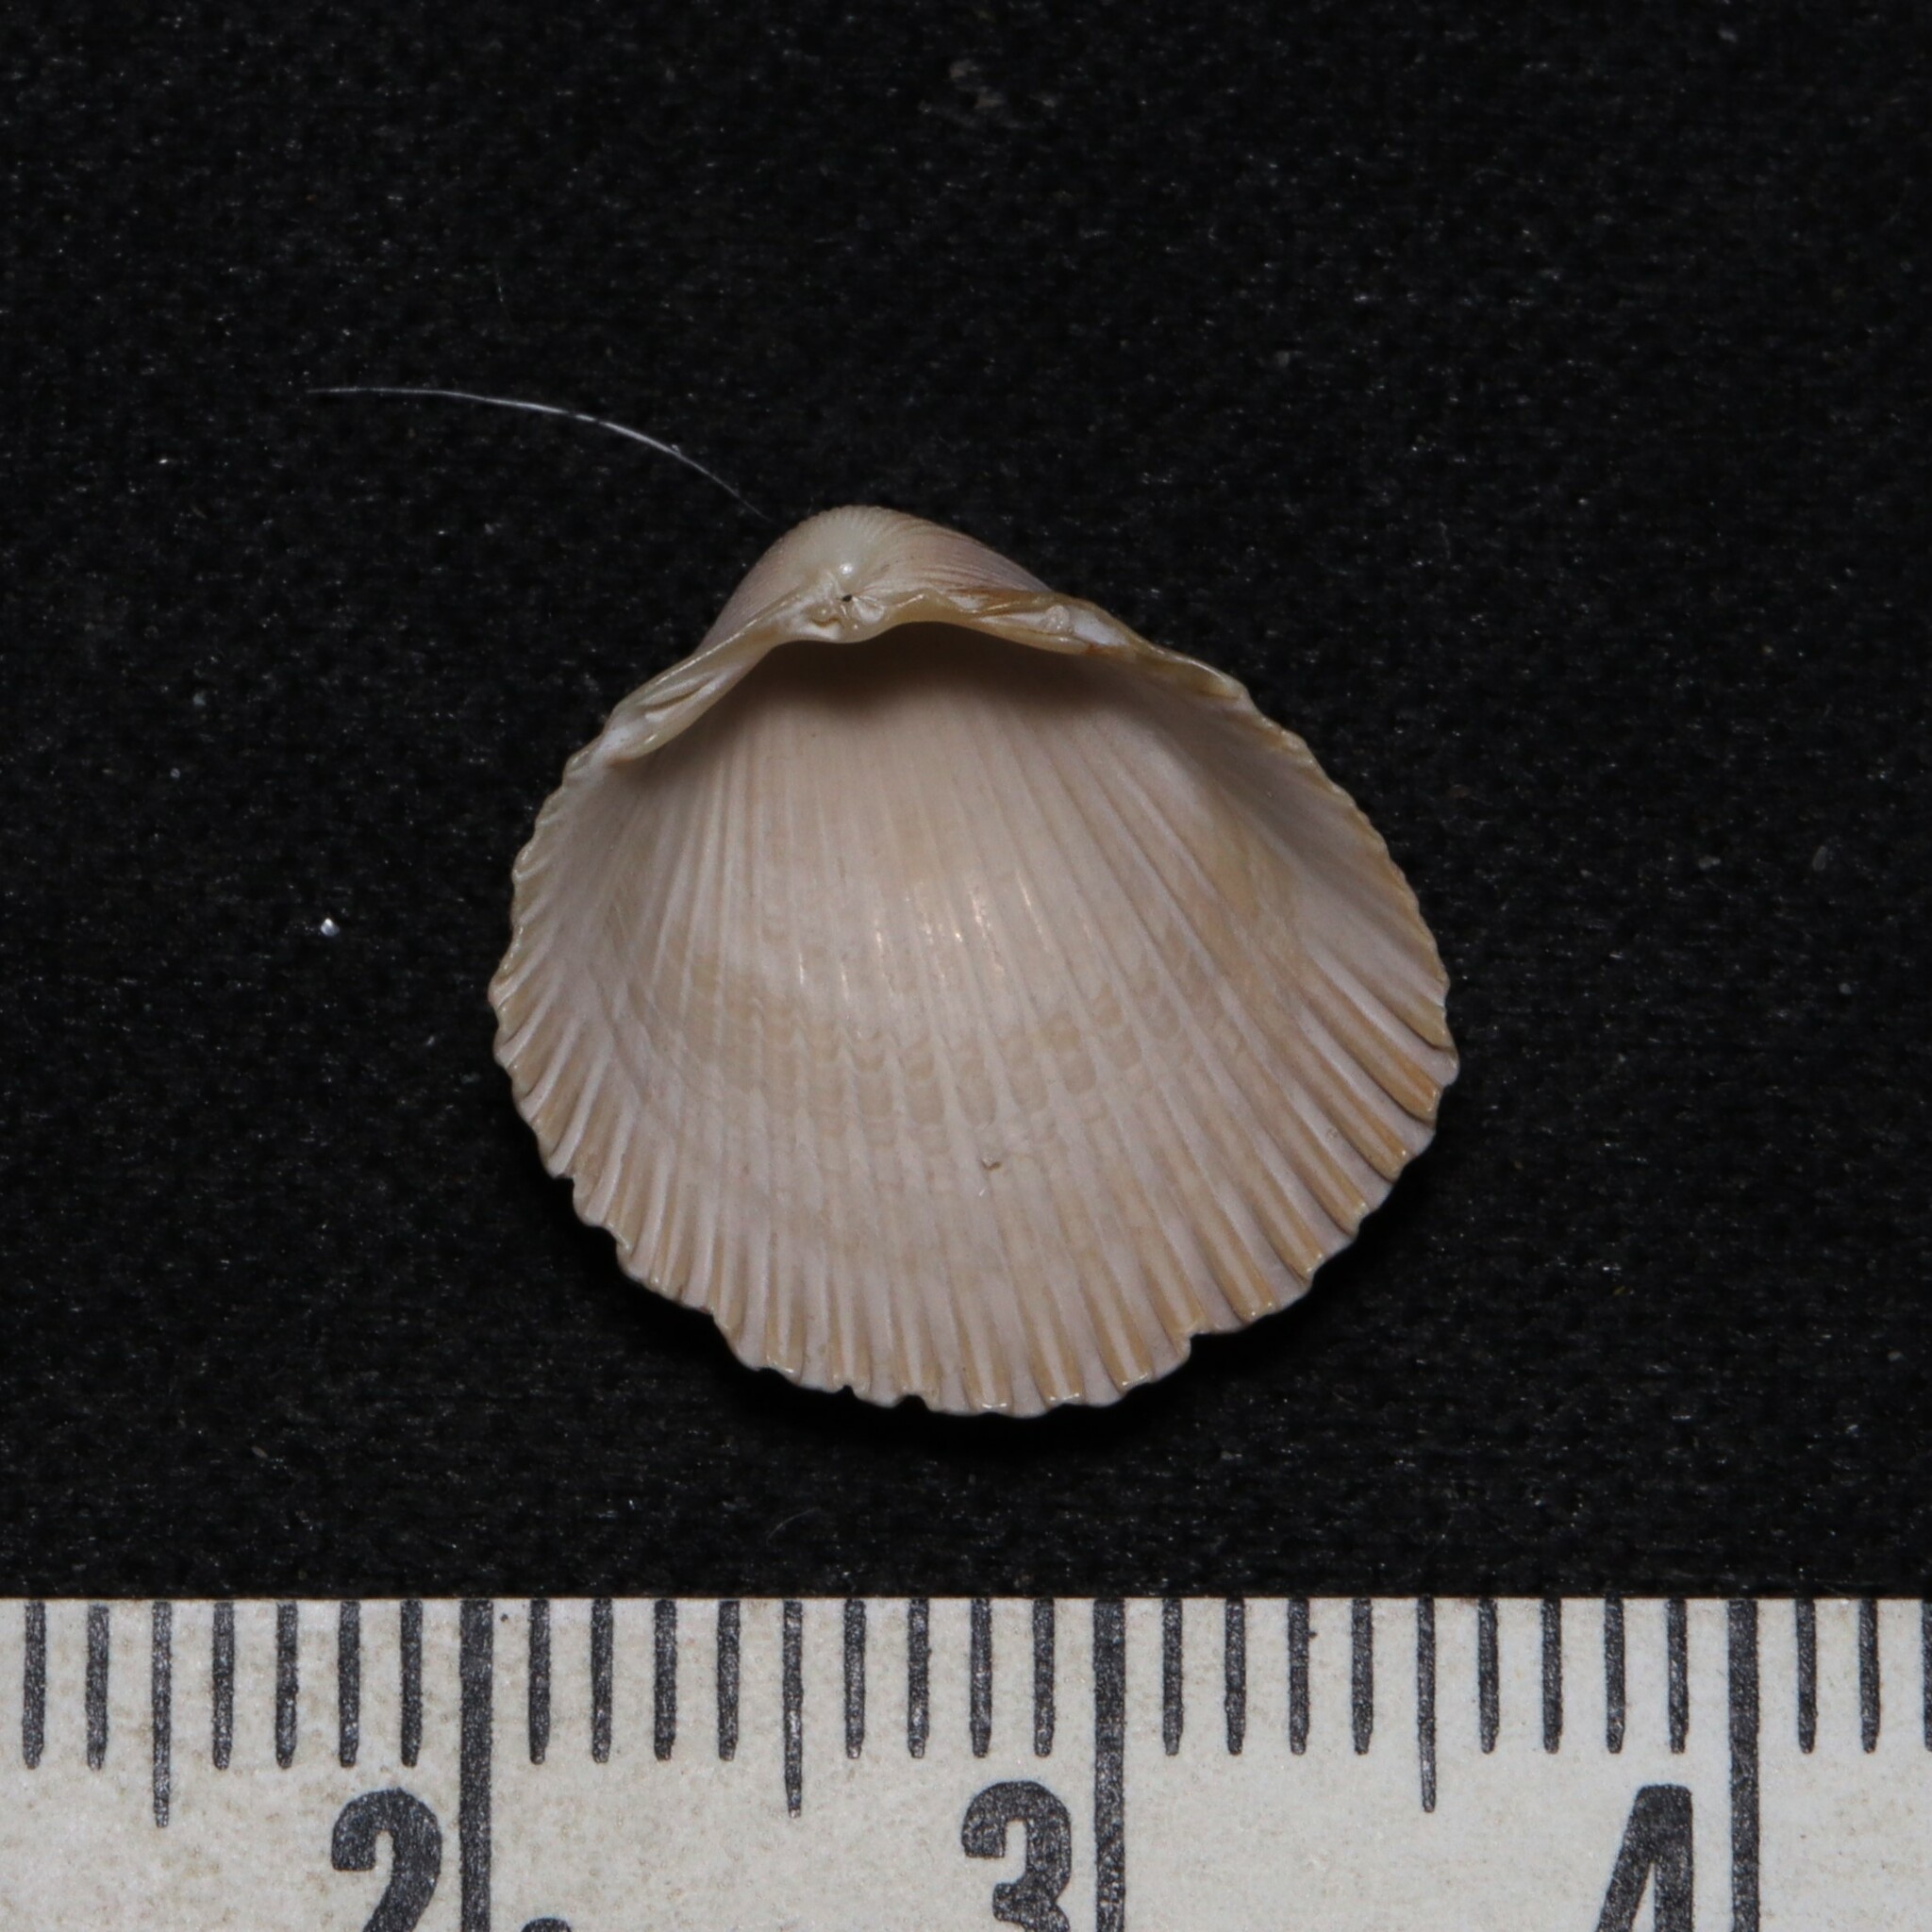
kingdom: Animalia
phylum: Mollusca
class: Bivalvia
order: Cardiida
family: Cardiidae
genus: Dinocardium
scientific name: Dinocardium robustum
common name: Atlantic giant cockle
